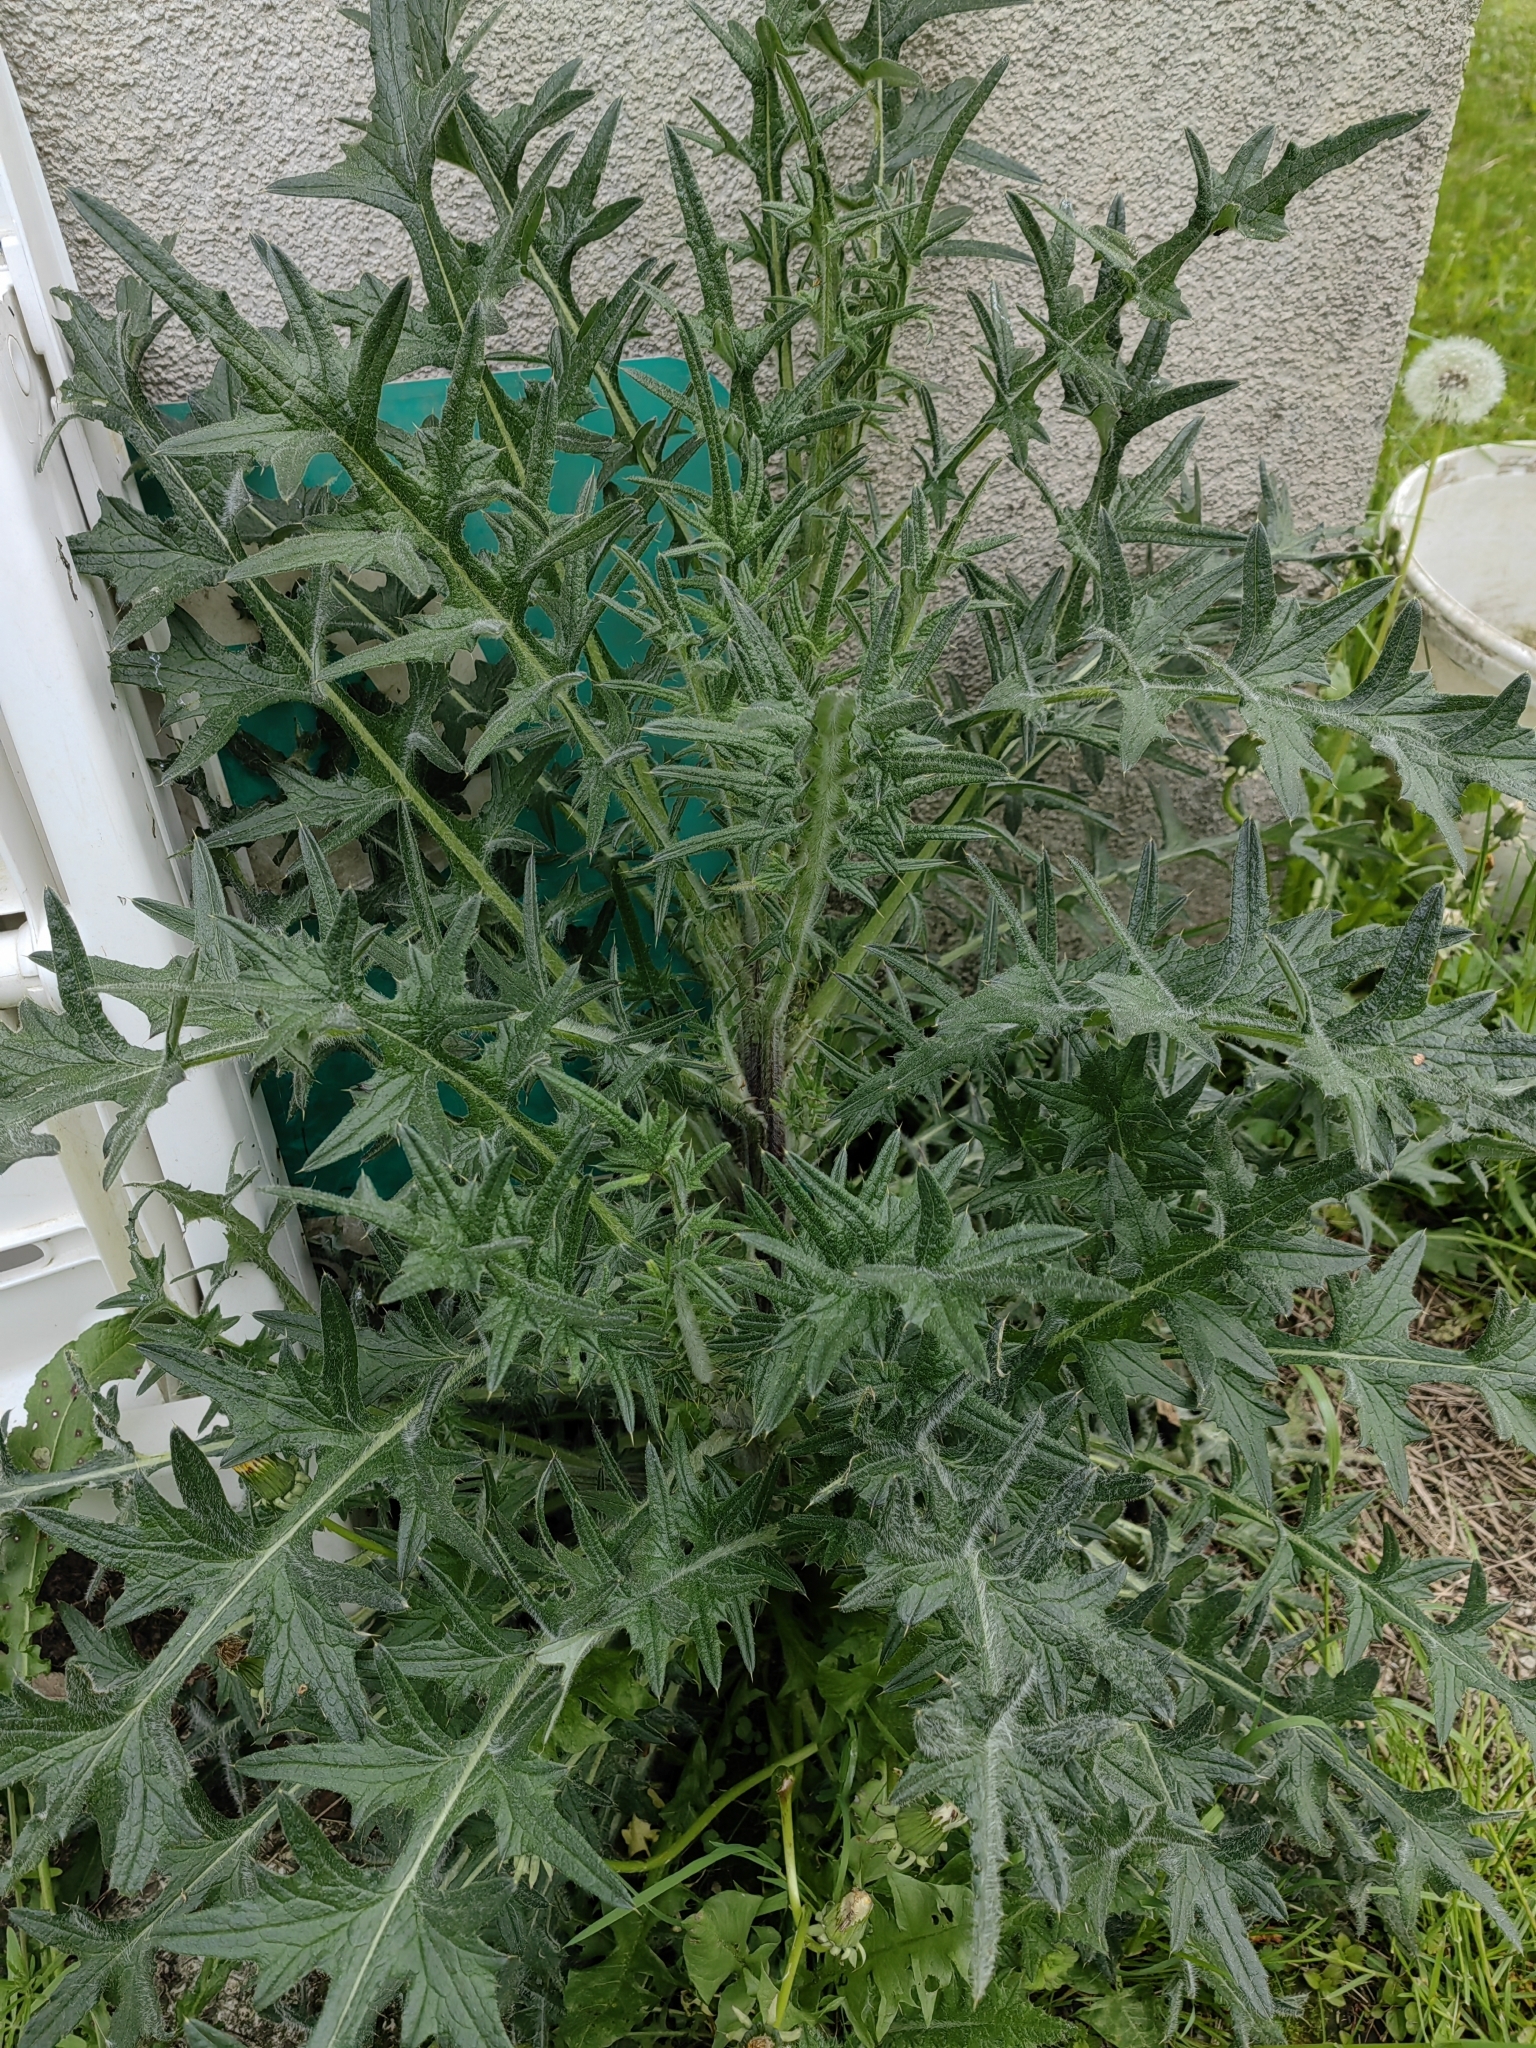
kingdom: Plantae
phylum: Tracheophyta
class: Magnoliopsida
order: Asterales
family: Asteraceae
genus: Cirsium
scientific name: Cirsium vulgare
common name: Bull thistle
